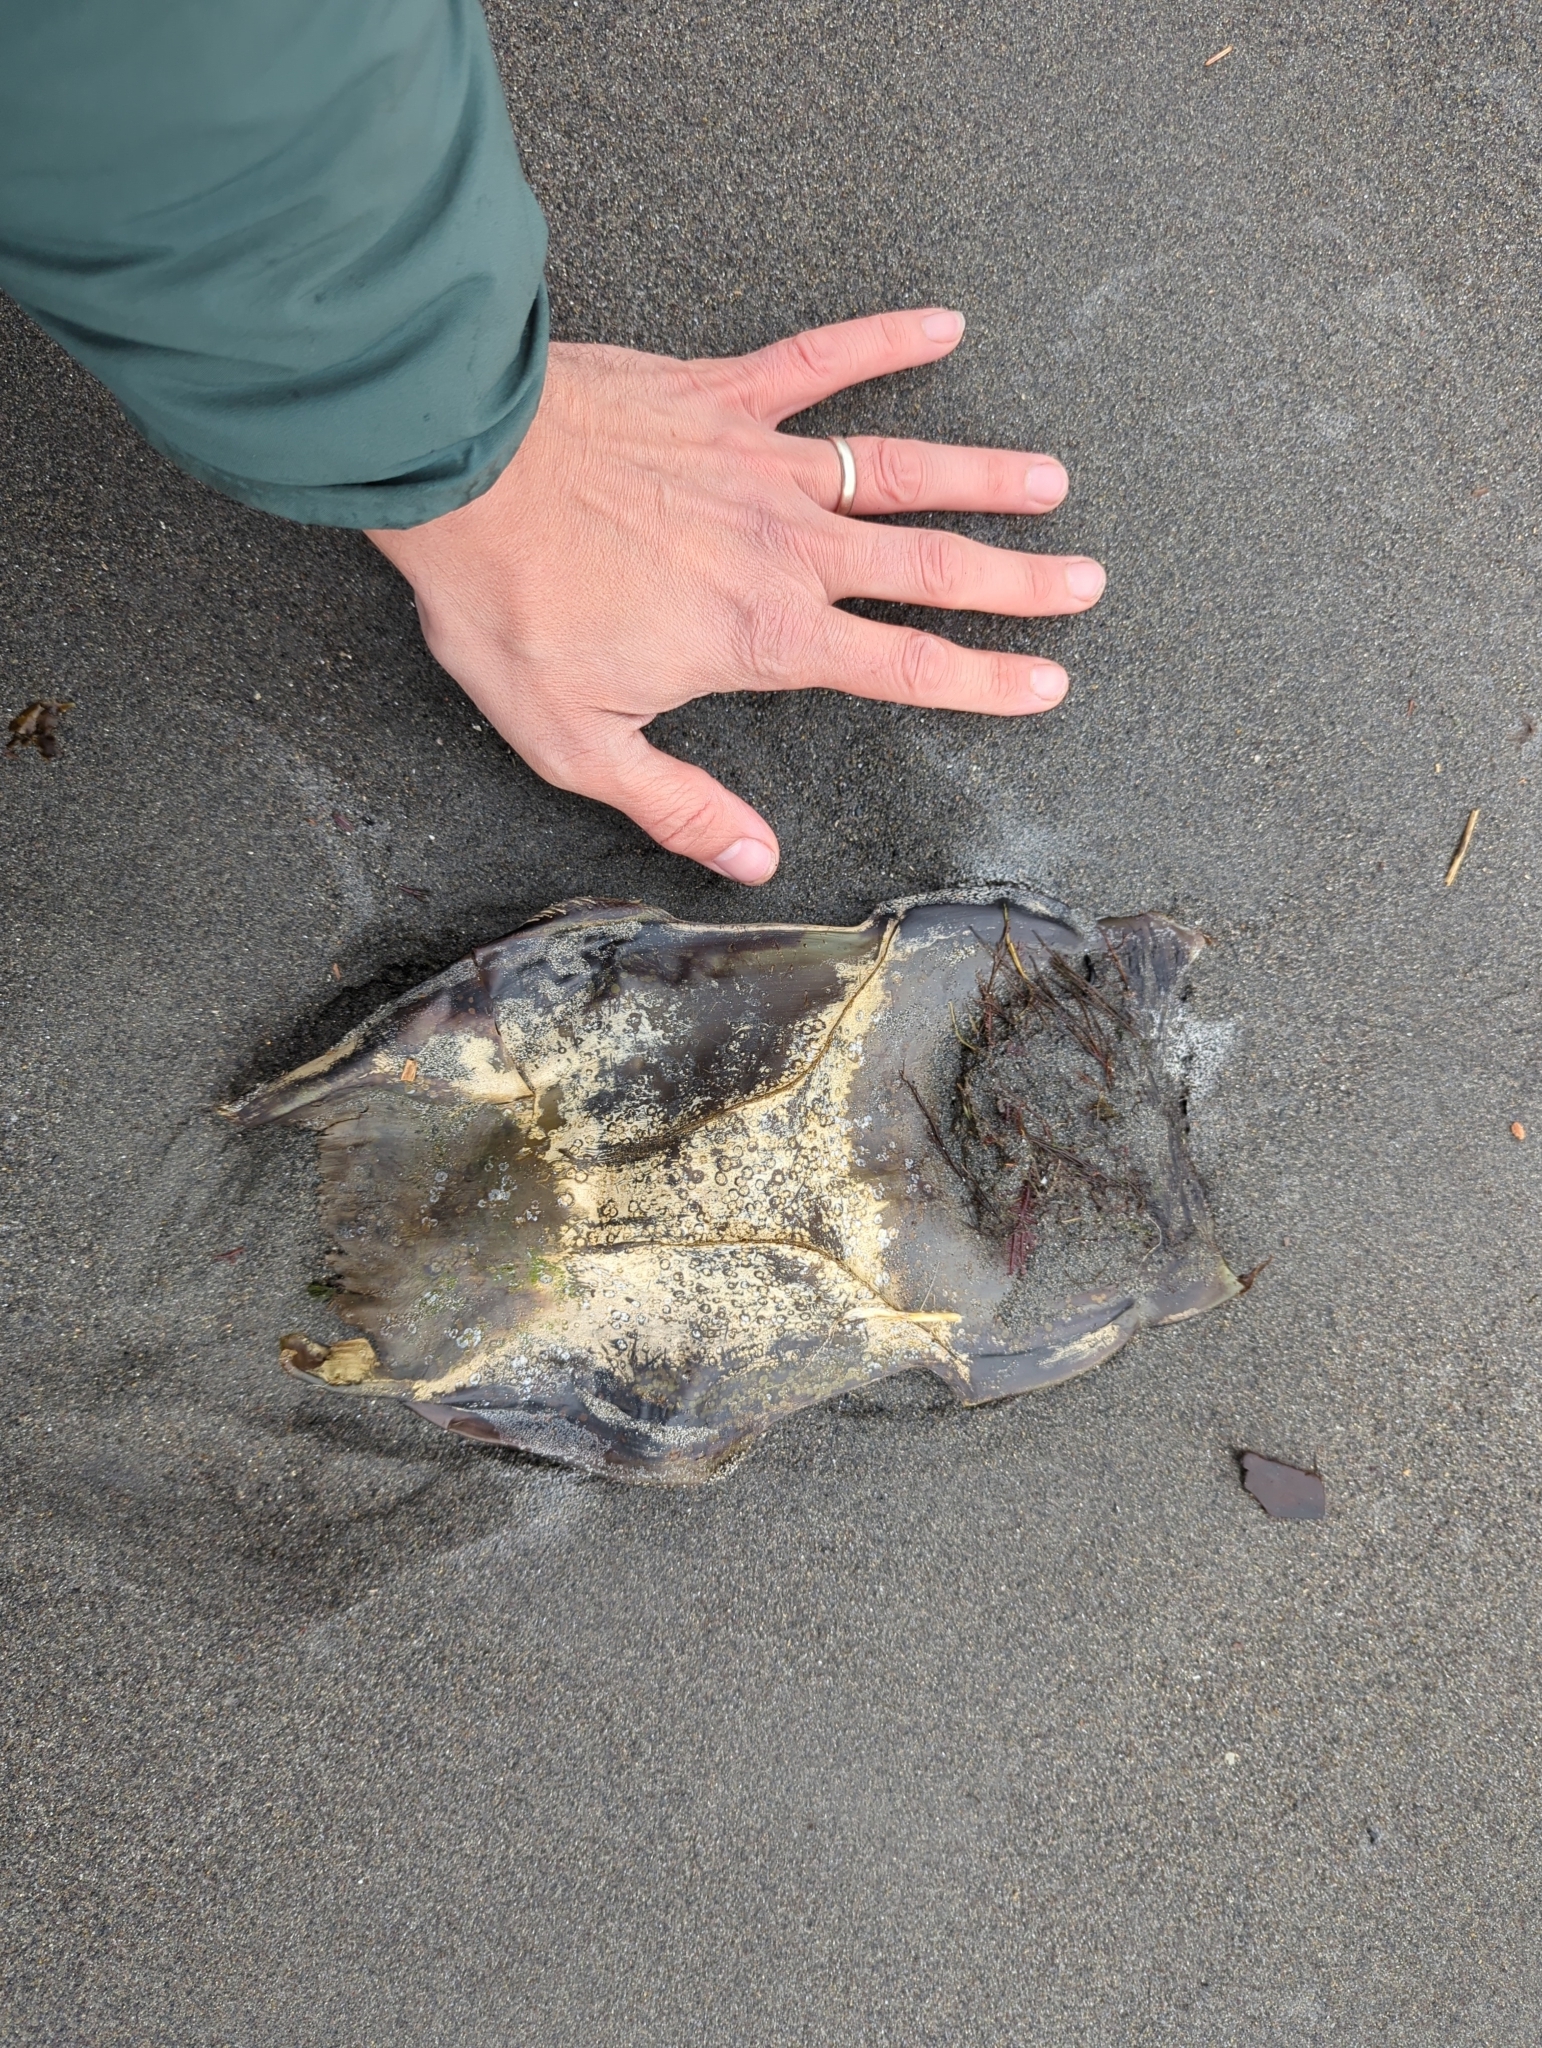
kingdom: Animalia
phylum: Chordata
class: Elasmobranchii
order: Rajiformes
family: Rajidae
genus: Beringraja
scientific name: Beringraja binoculata
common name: Big skate
